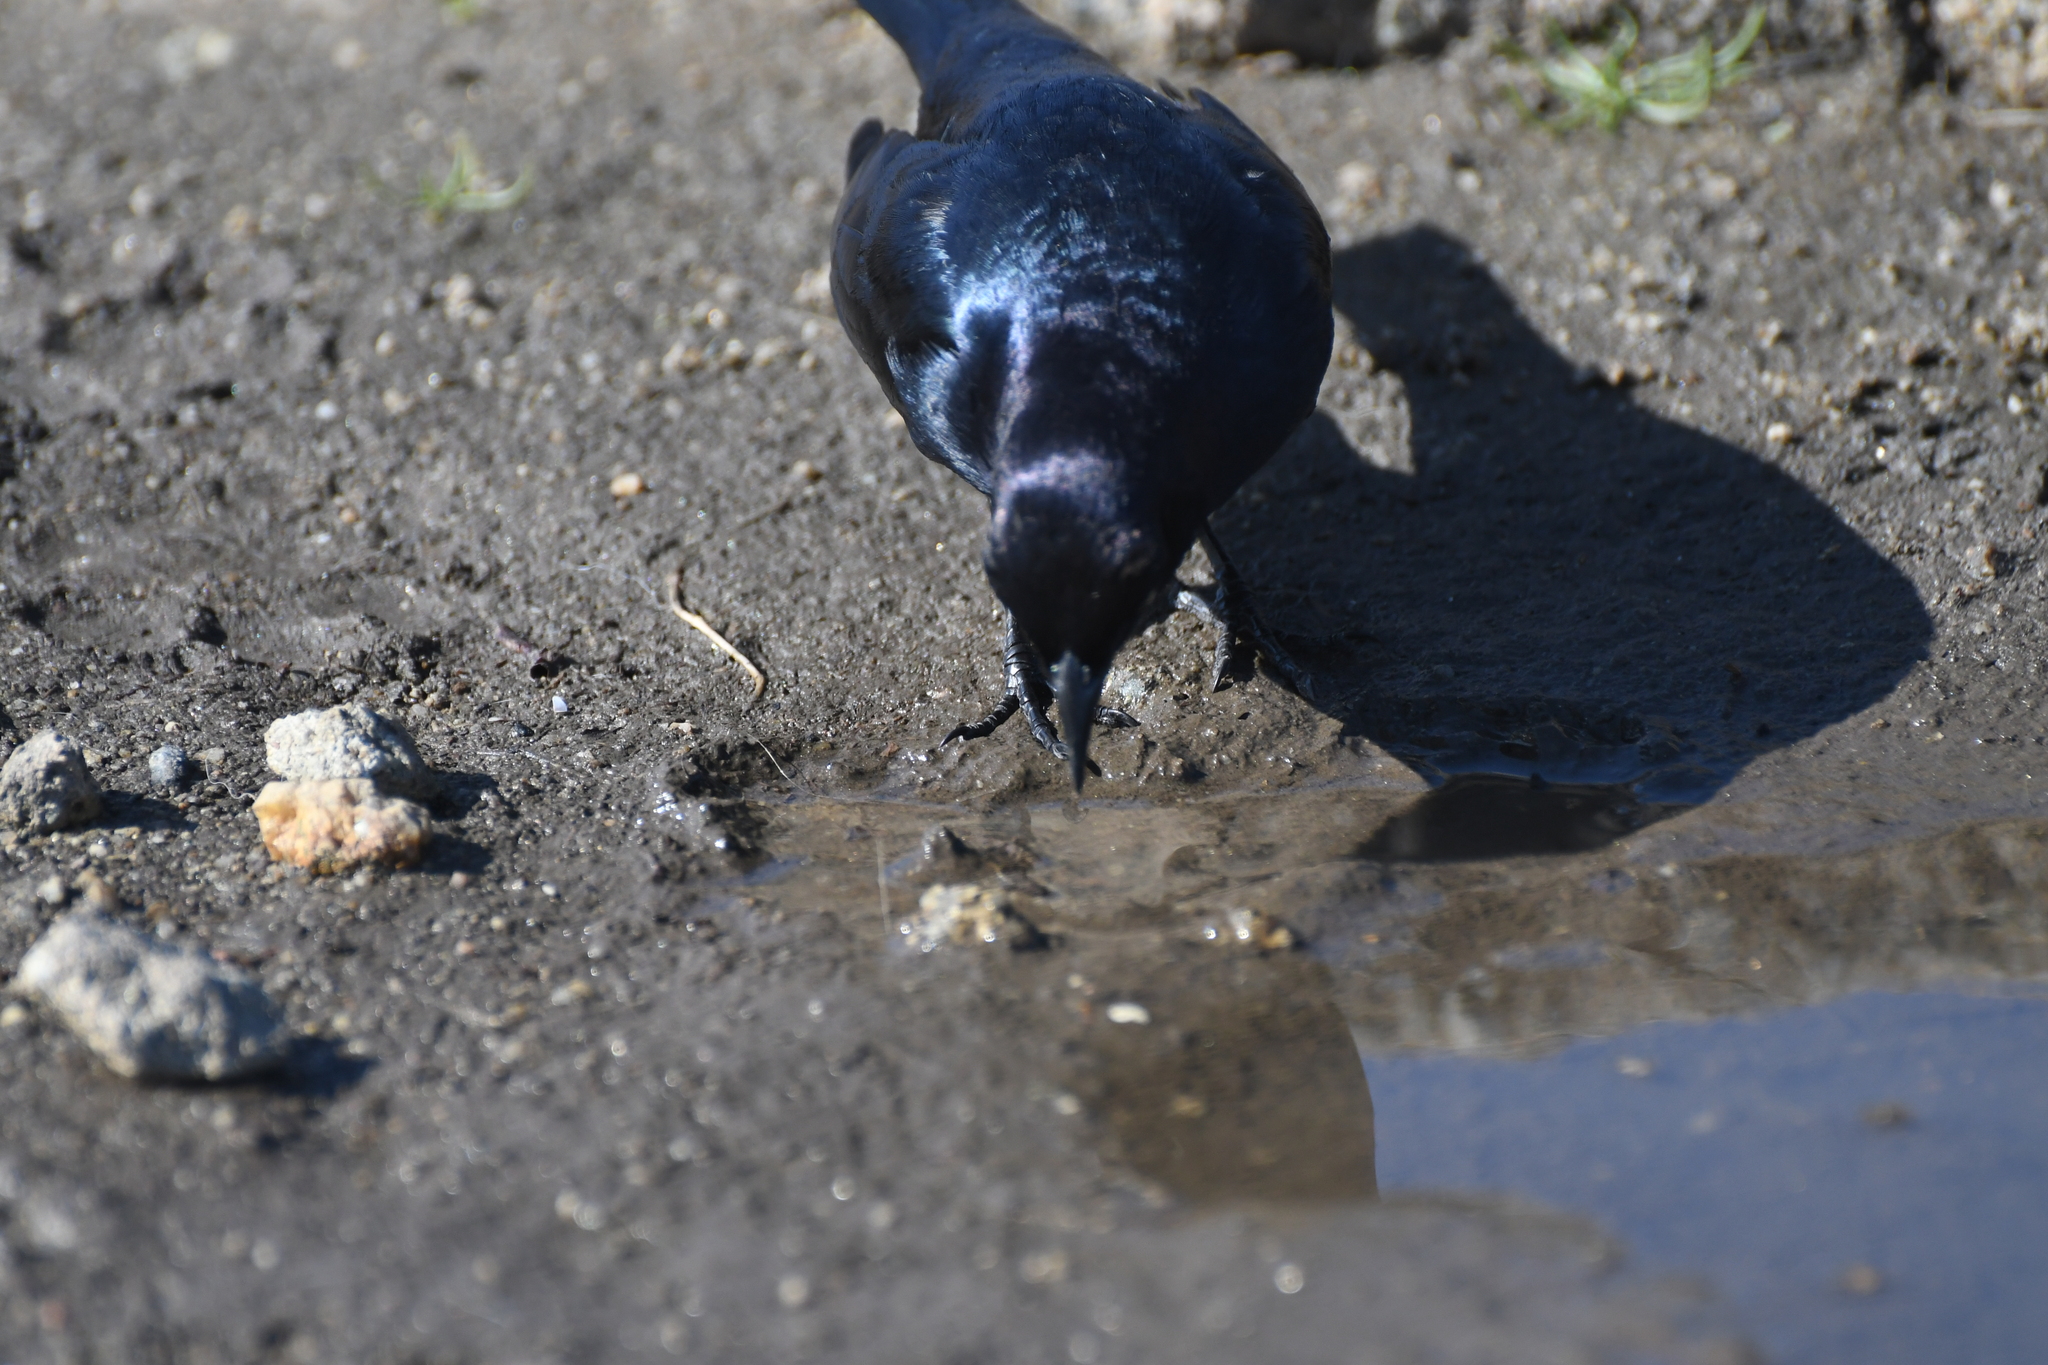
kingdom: Animalia
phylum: Chordata
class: Aves
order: Passeriformes
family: Icteridae
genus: Euphagus
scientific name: Euphagus cyanocephalus
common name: Brewer's blackbird
